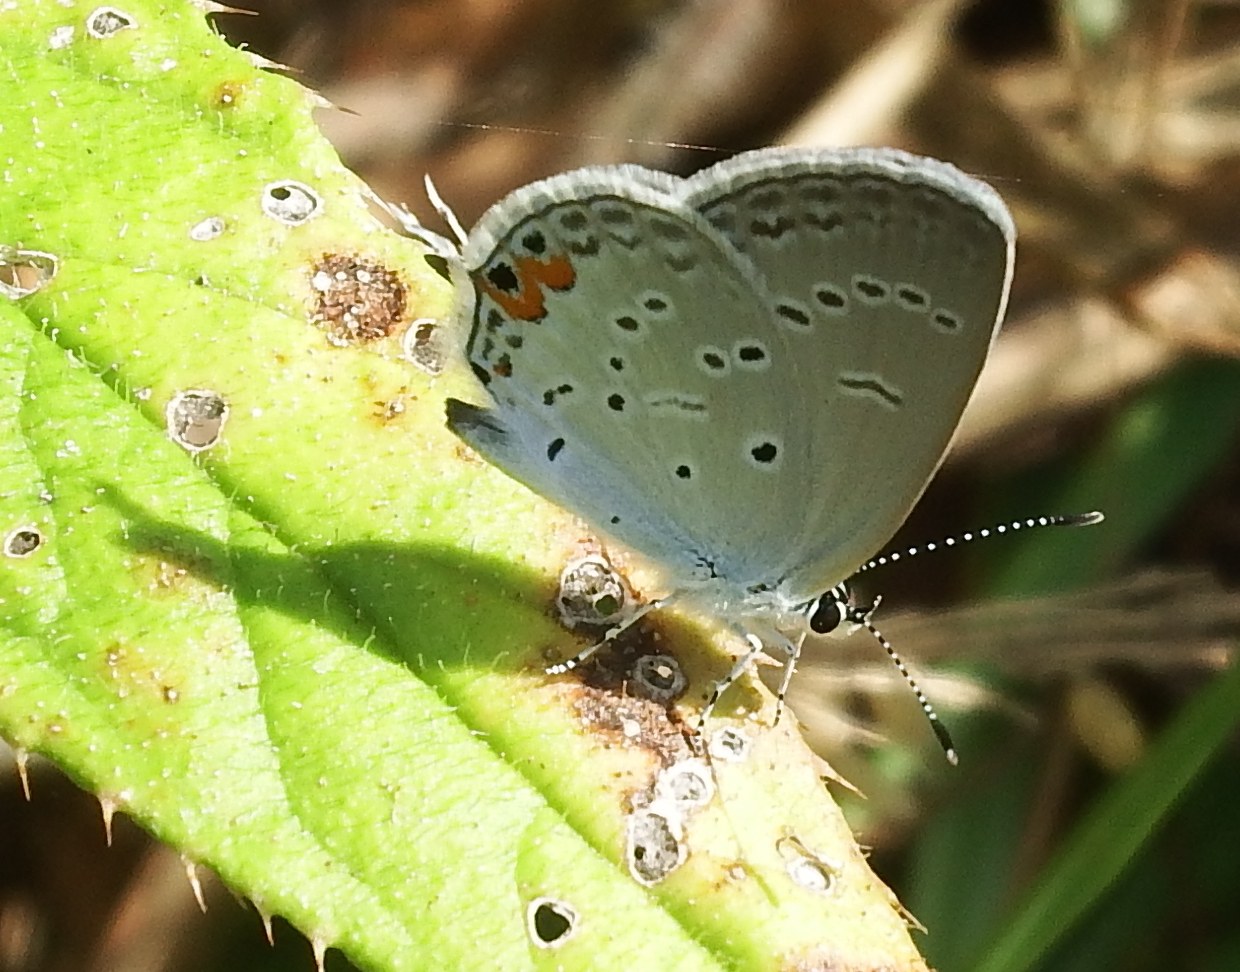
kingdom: Animalia
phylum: Arthropoda
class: Insecta
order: Lepidoptera
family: Lycaenidae
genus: Elkalyce
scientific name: Elkalyce comyntas
